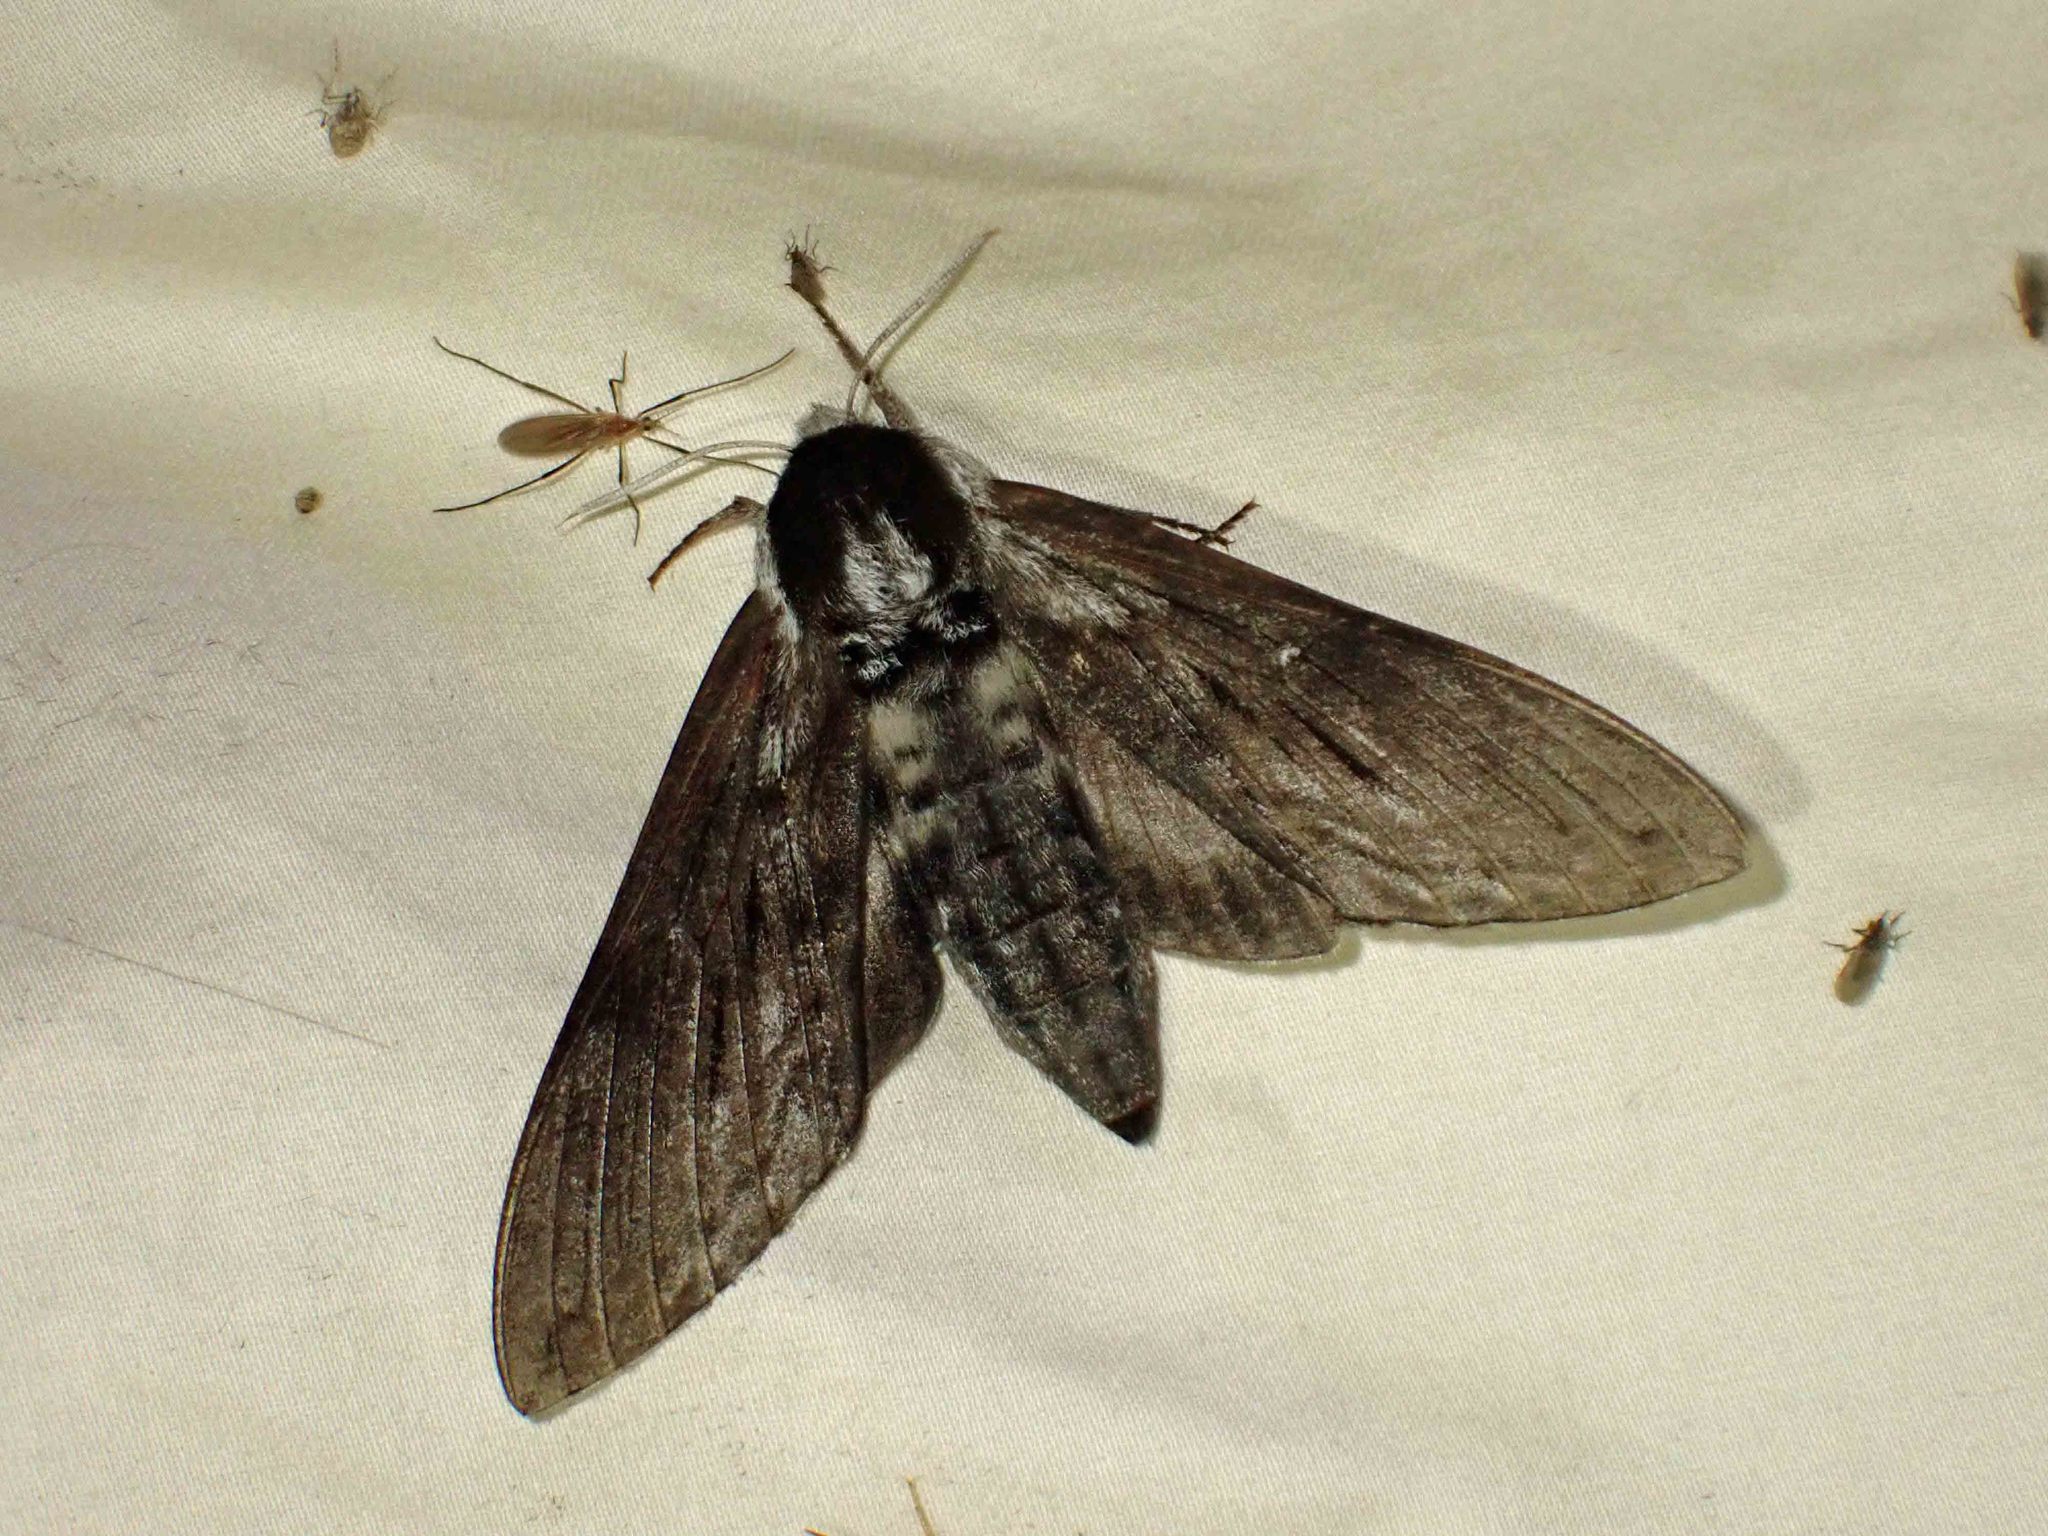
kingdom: Animalia
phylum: Arthropoda
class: Insecta
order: Lepidoptera
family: Sphingidae
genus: Sphinx
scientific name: Sphinx poecila
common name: Northern apple sphinx
